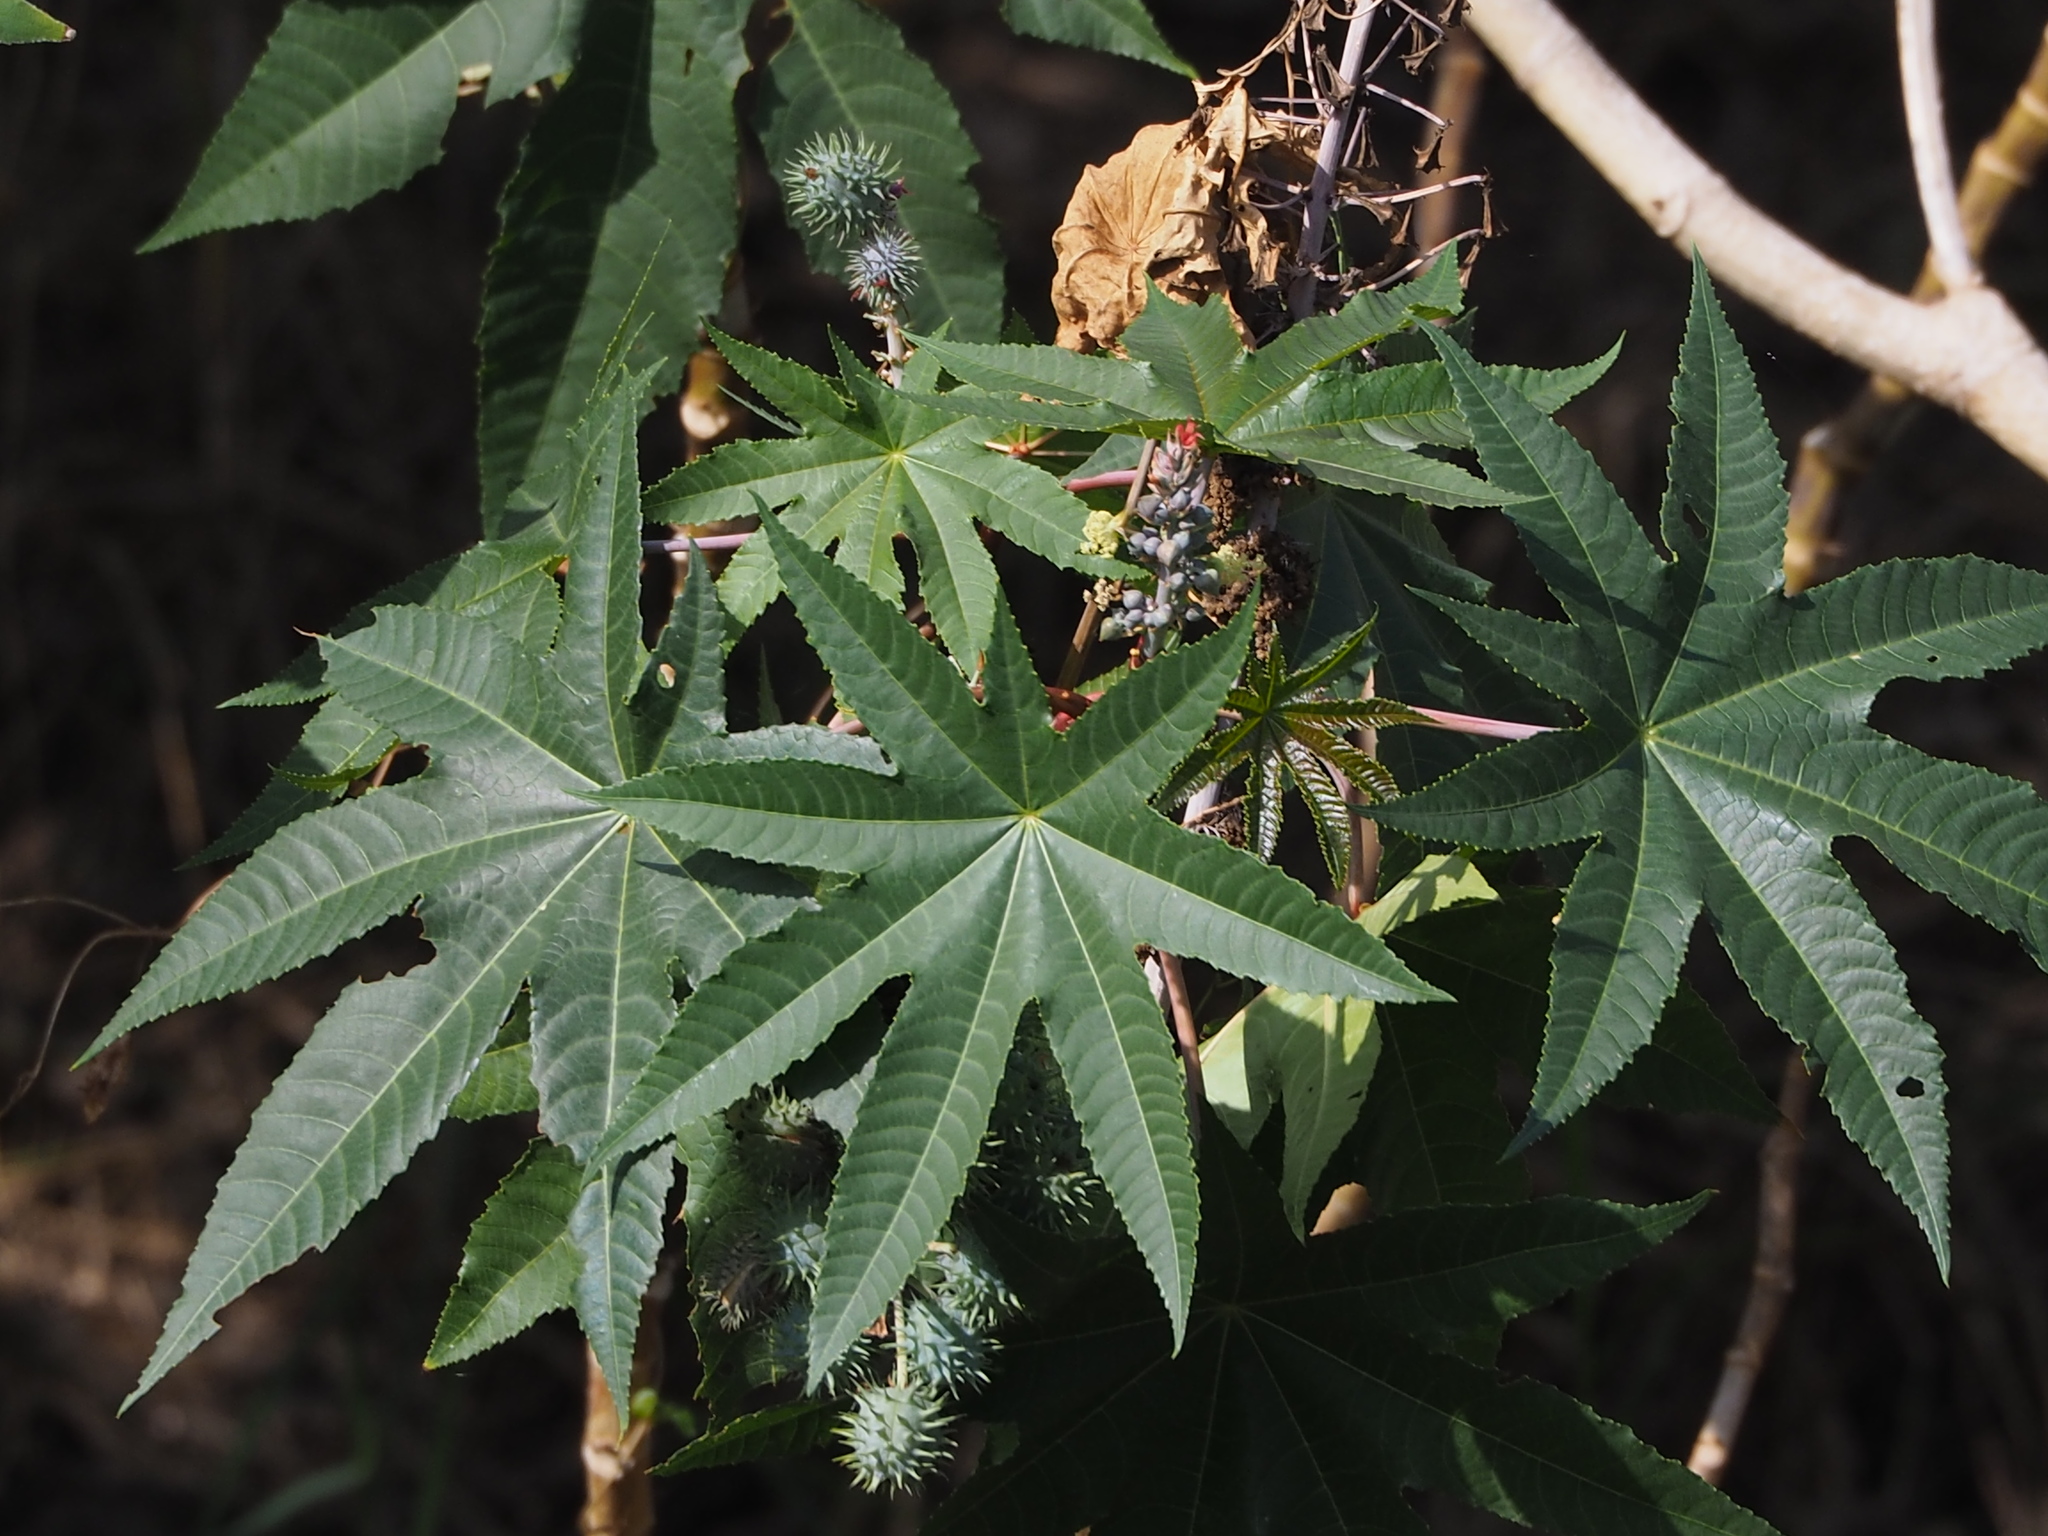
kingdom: Plantae
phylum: Tracheophyta
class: Magnoliopsida
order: Malpighiales
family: Euphorbiaceae
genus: Ricinus
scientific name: Ricinus communis
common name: Castor-oil-plant
